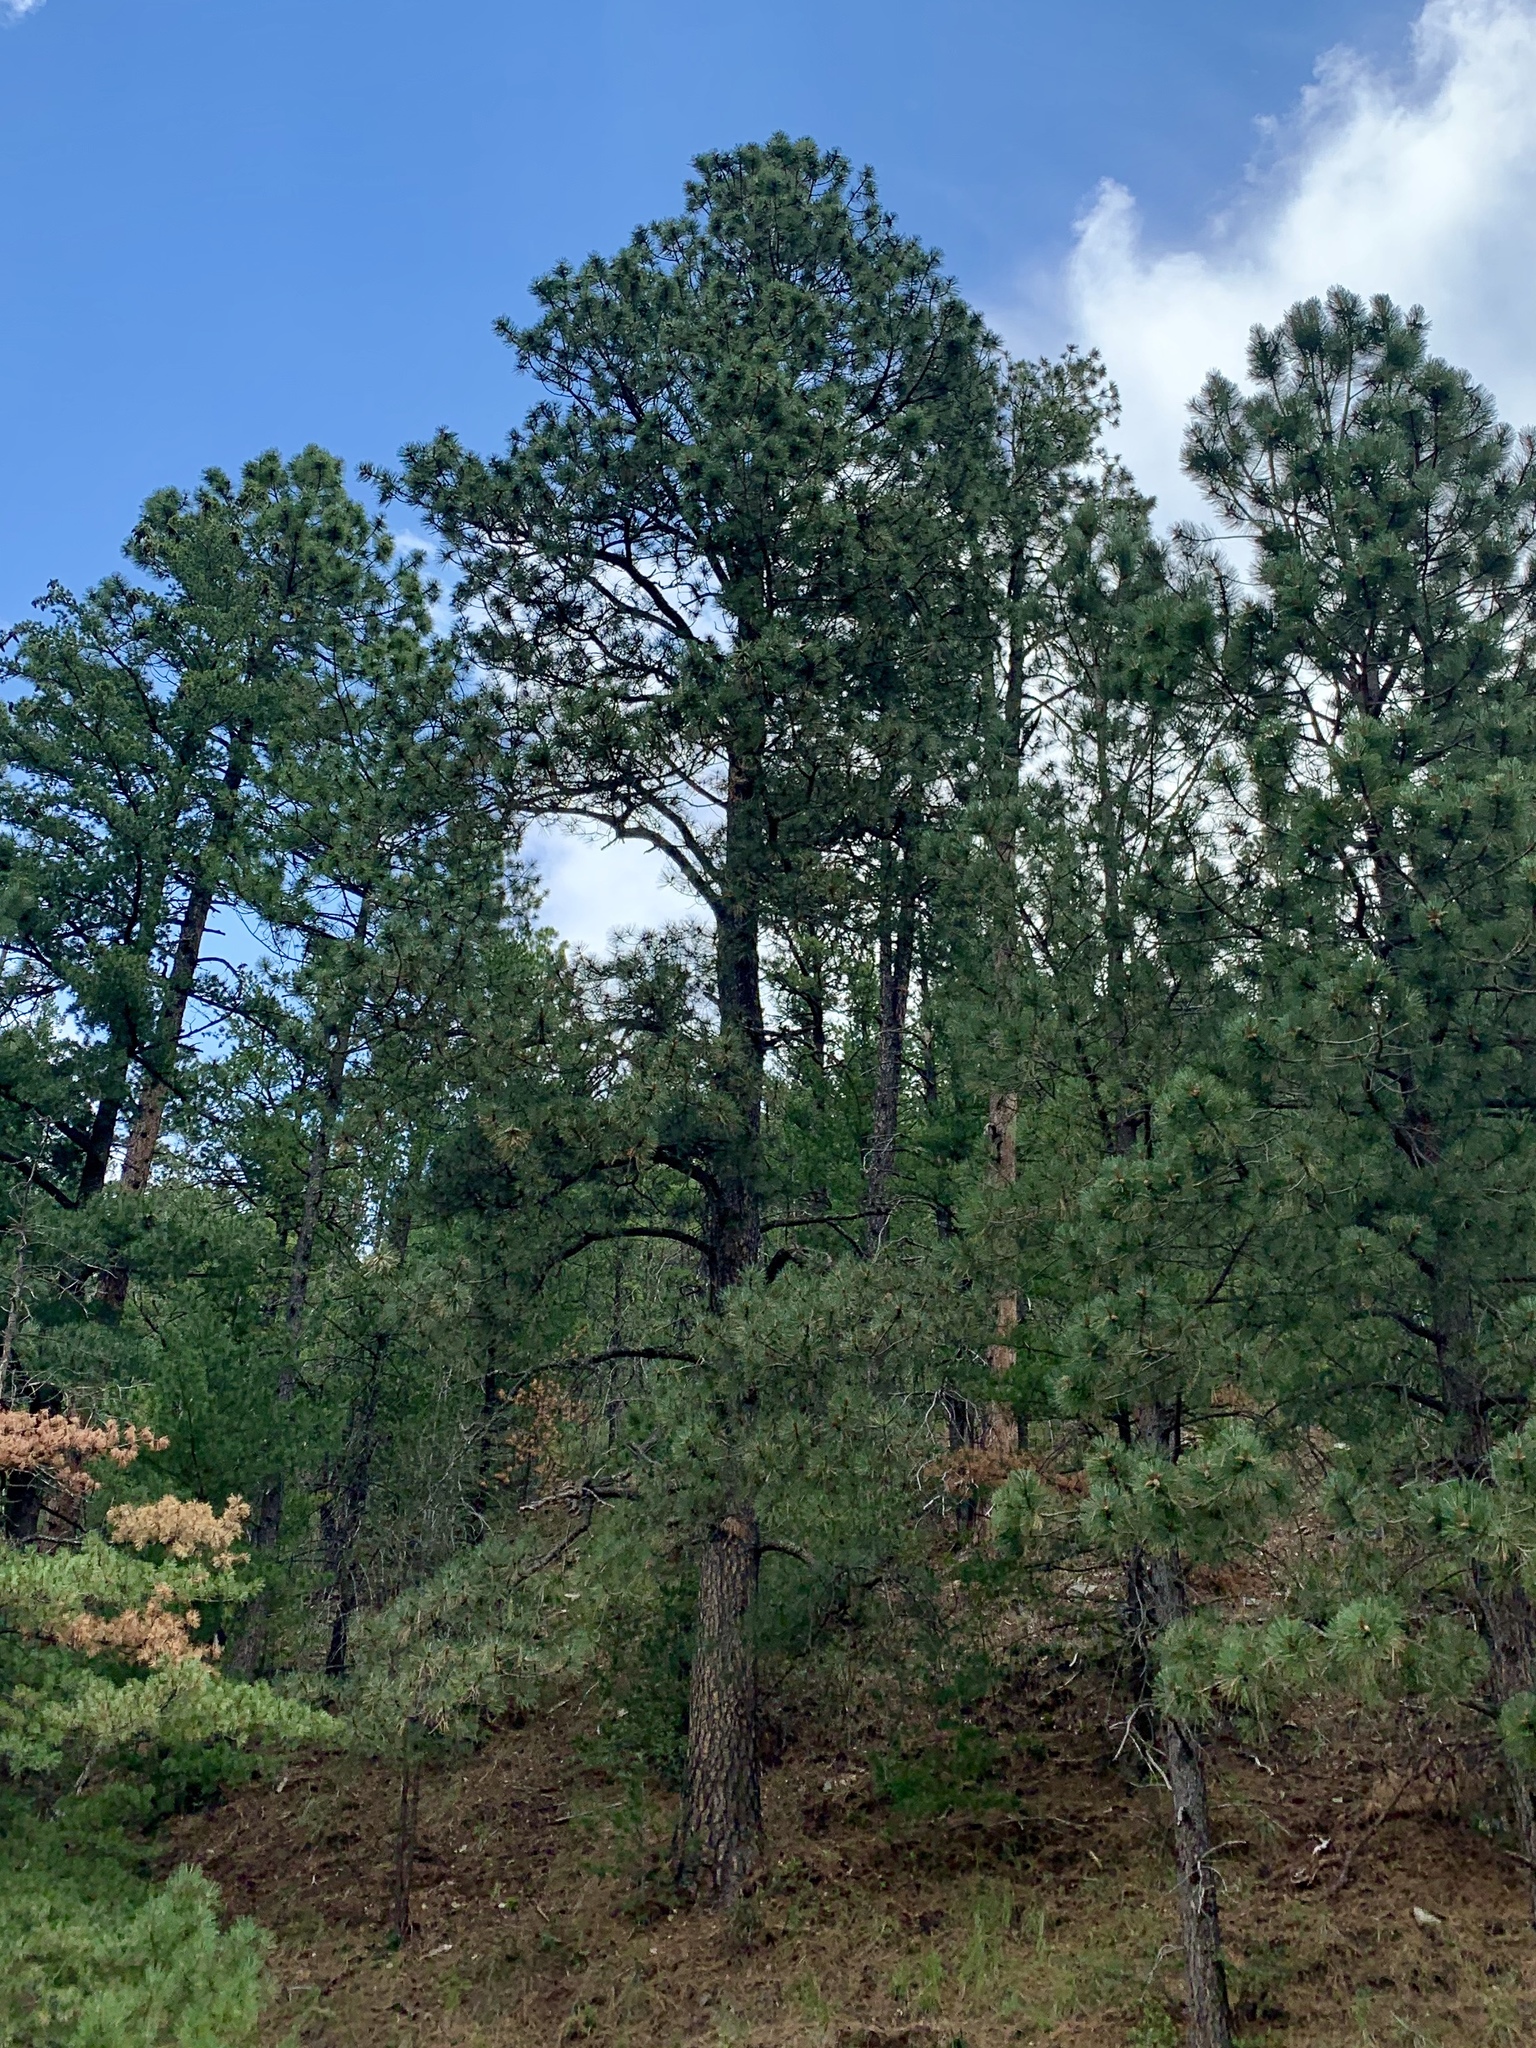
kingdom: Plantae
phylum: Tracheophyta
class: Pinopsida
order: Pinales
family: Pinaceae
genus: Pinus
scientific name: Pinus ponderosa
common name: Western yellow-pine
